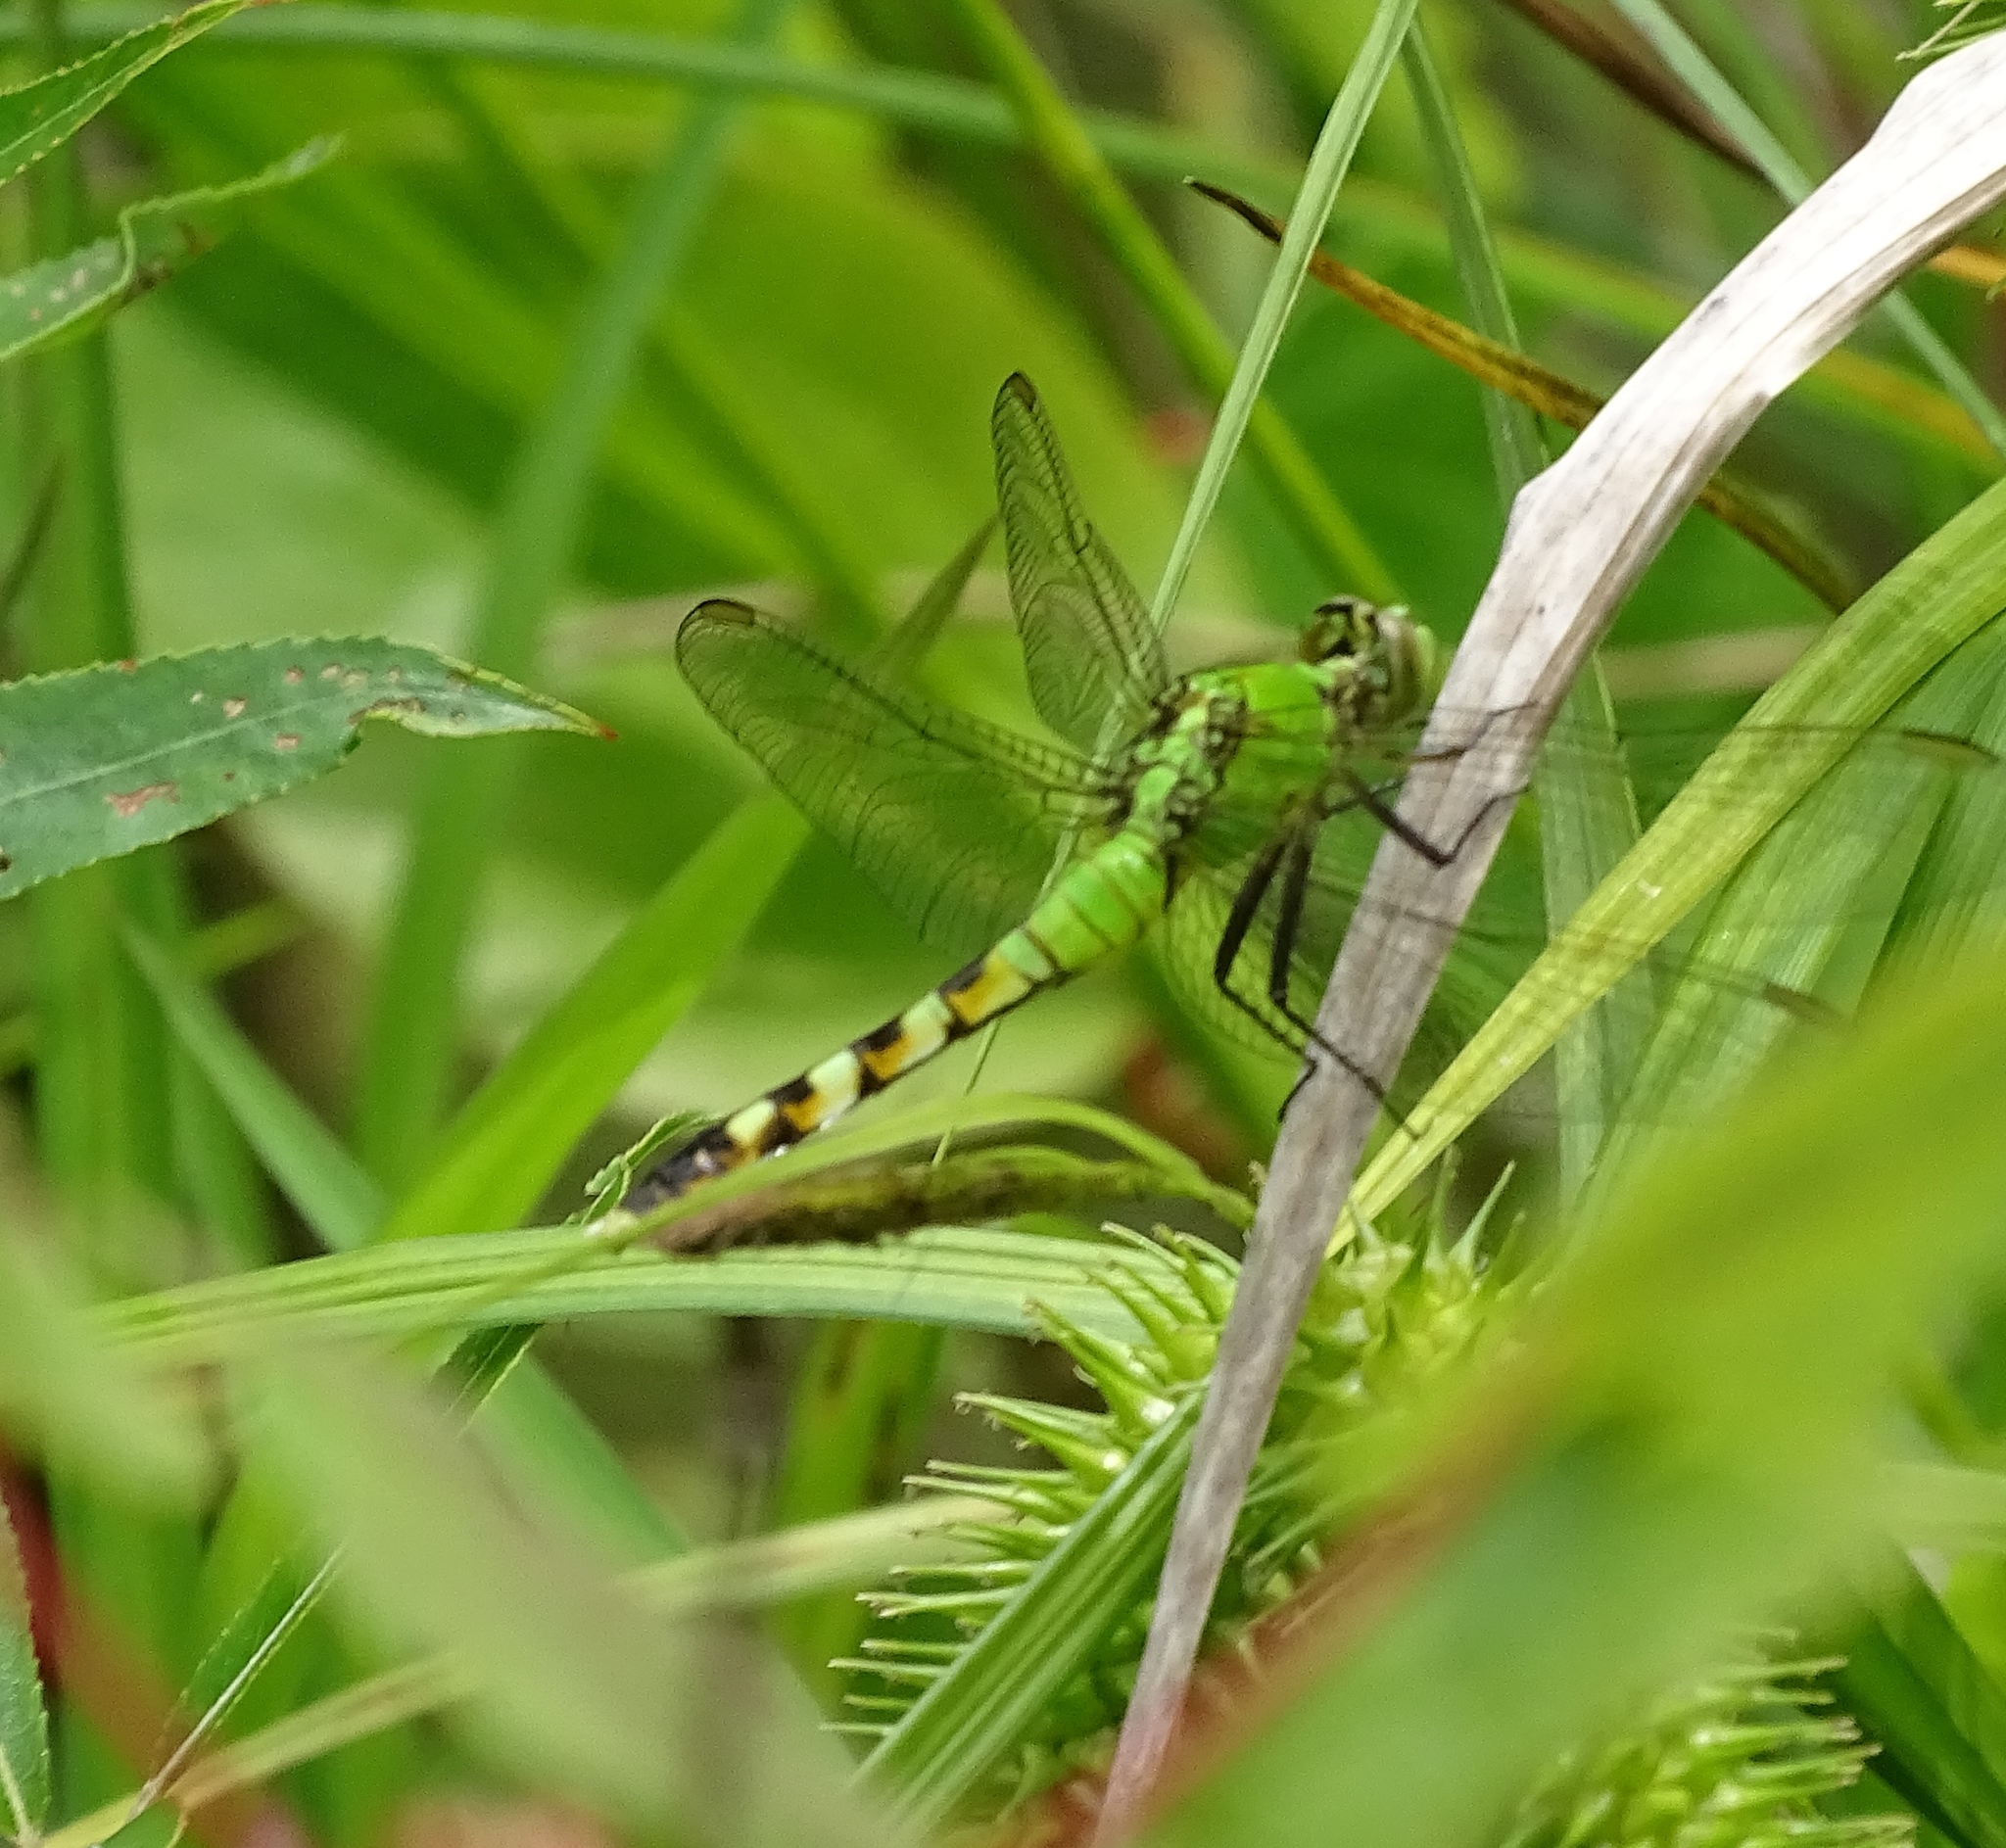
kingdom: Animalia
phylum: Arthropoda
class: Insecta
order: Odonata
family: Libellulidae
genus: Erythemis
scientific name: Erythemis simplicicollis
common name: Eastern pondhawk
